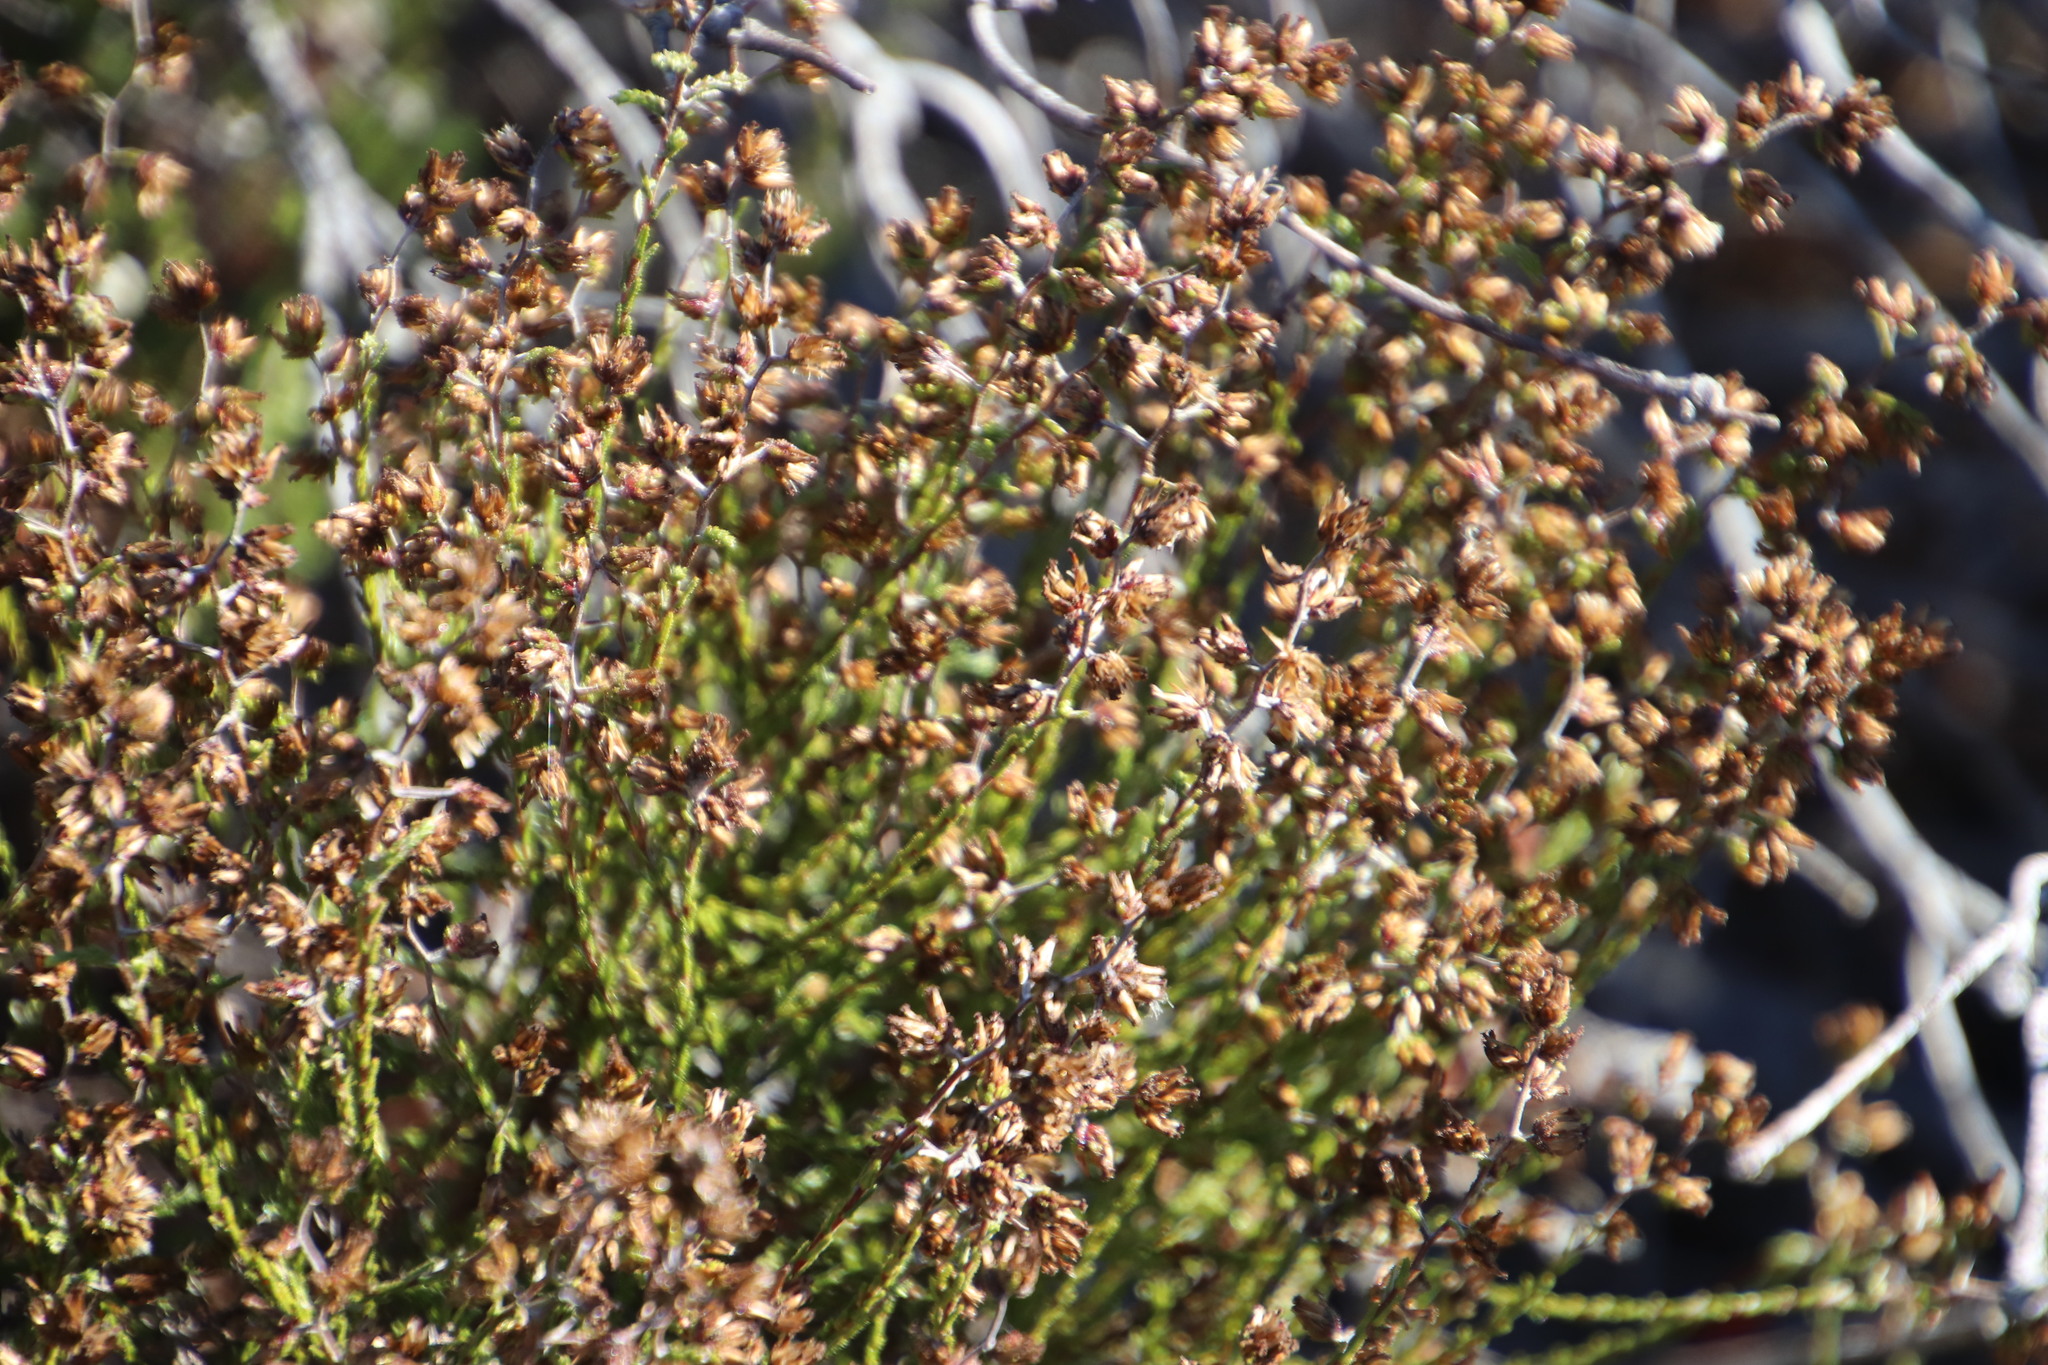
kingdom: Plantae
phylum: Tracheophyta
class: Magnoliopsida
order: Asterales
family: Asteraceae
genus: Myrovernix
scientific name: Myrovernix scaber
